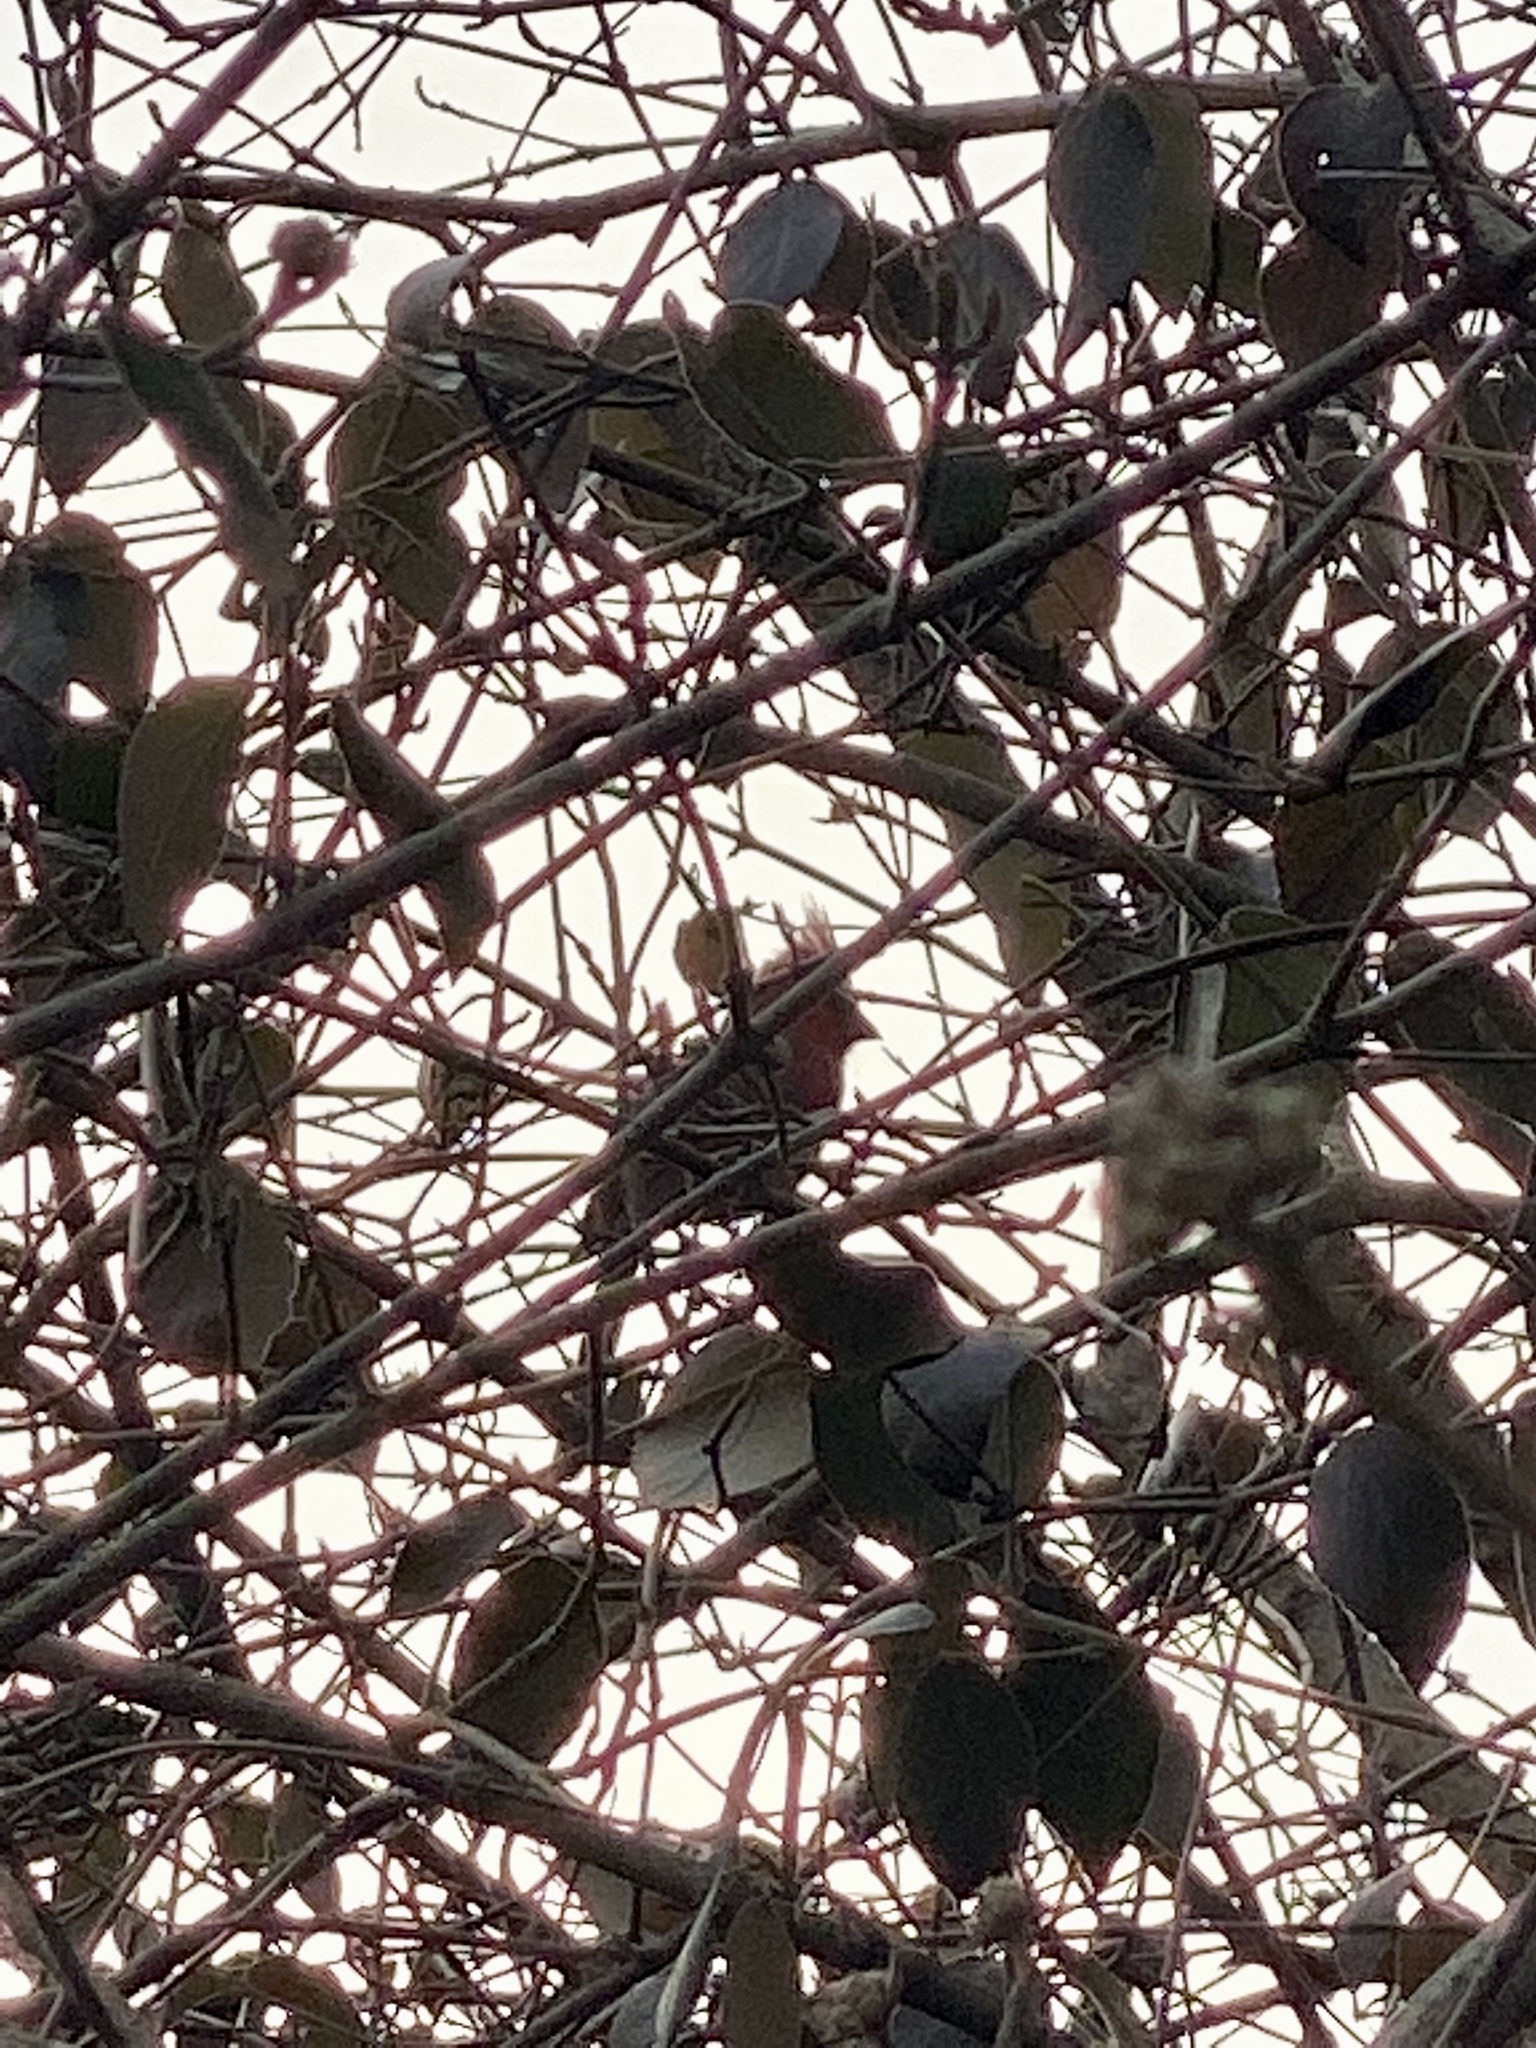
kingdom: Animalia
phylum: Chordata
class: Aves
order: Passeriformes
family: Cardinalidae
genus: Cardinalis
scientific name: Cardinalis cardinalis
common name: Northern cardinal
